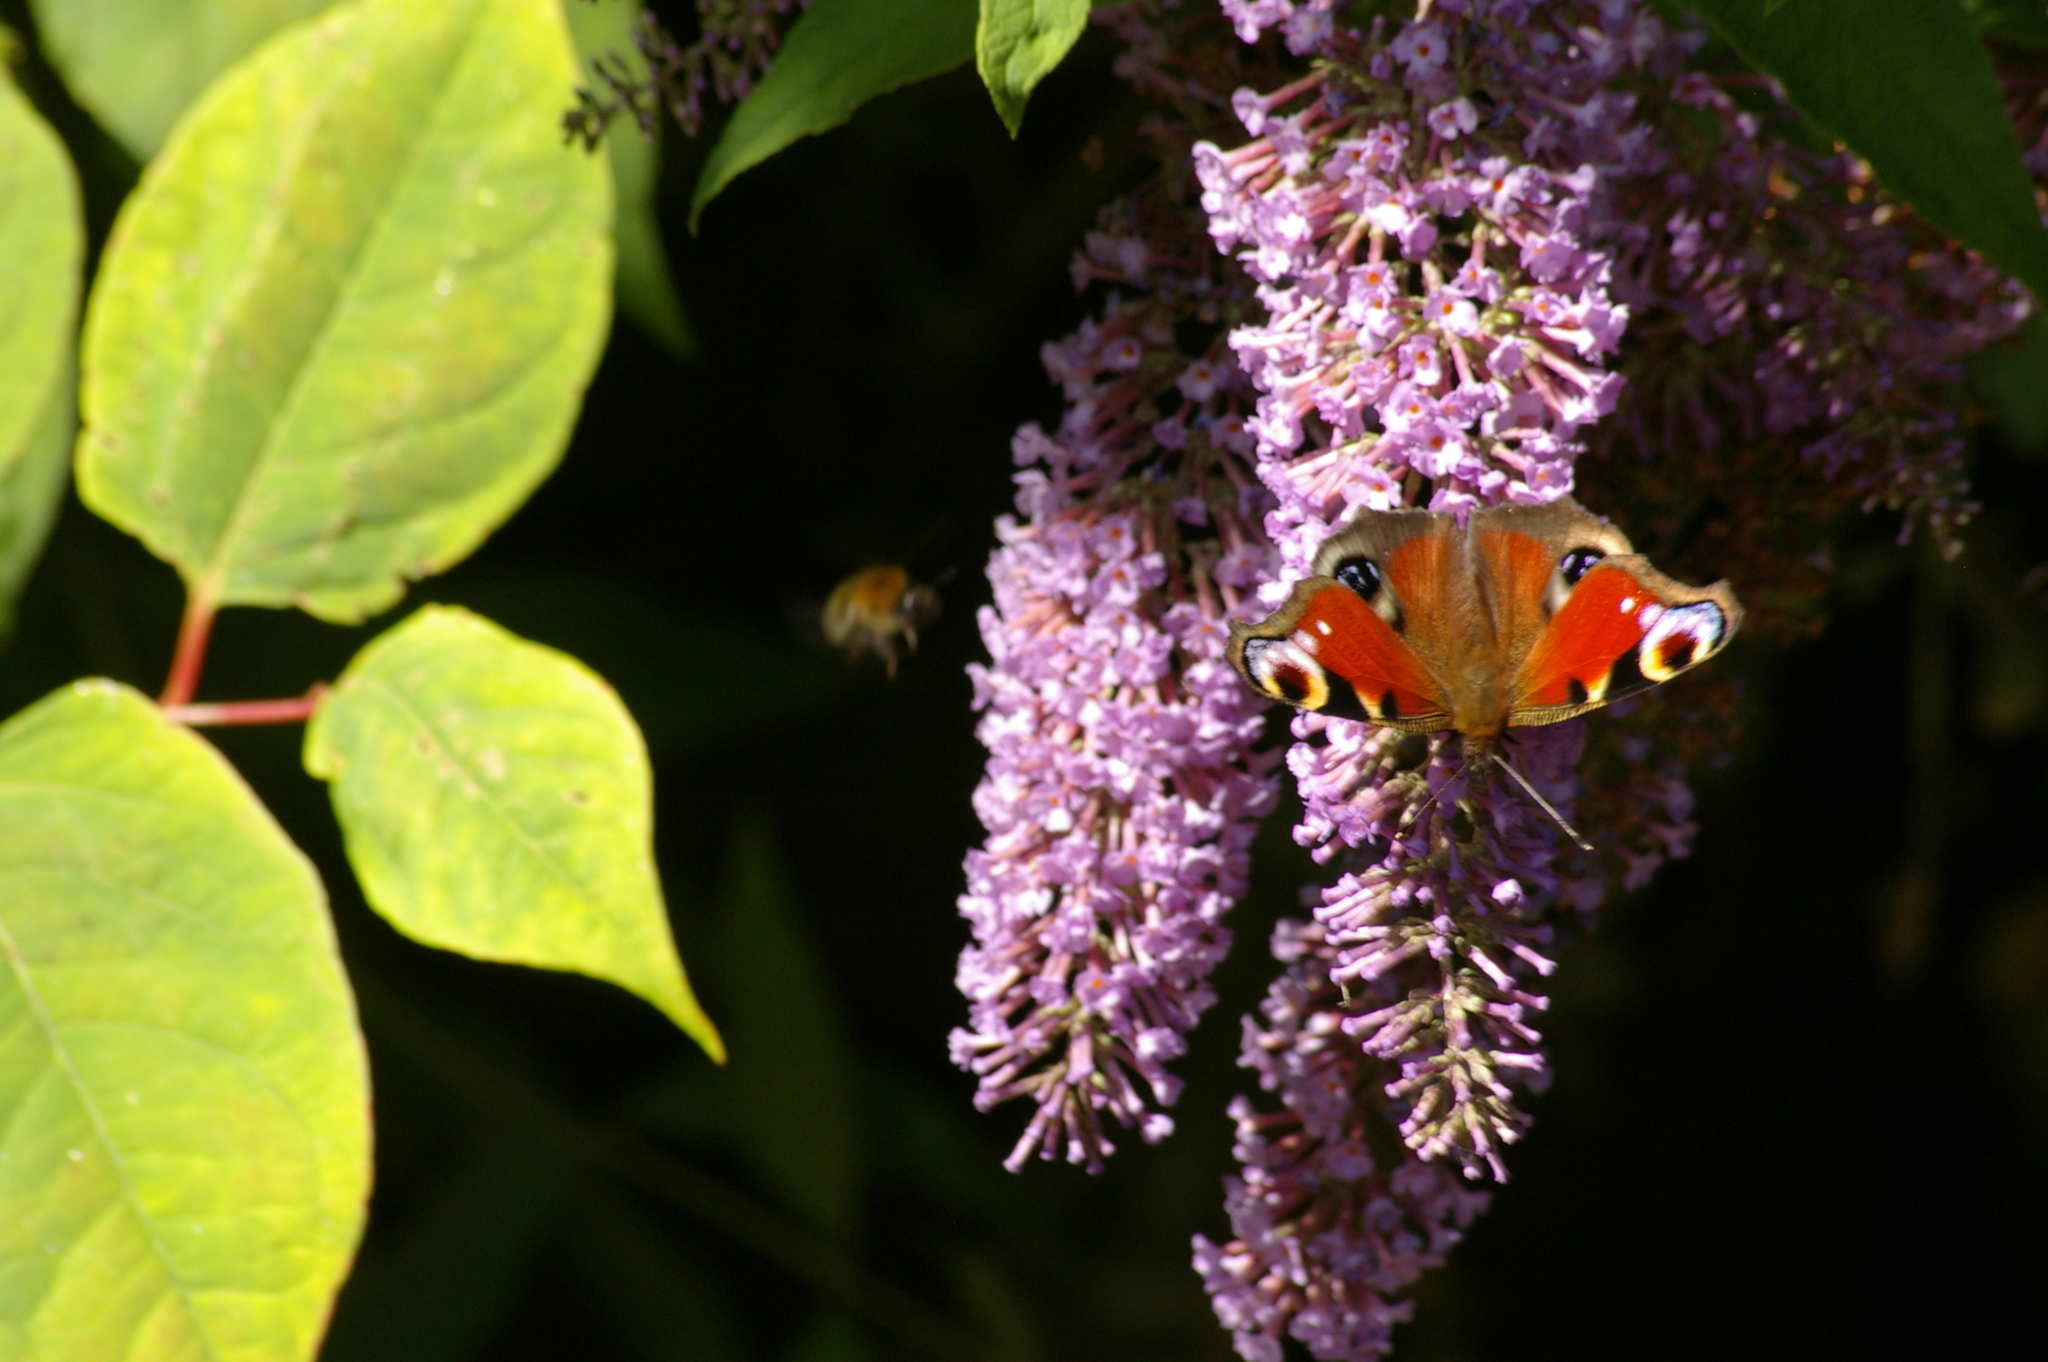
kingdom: Animalia
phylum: Arthropoda
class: Insecta
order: Lepidoptera
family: Nymphalidae
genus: Aglais
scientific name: Aglais io
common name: Peacock
